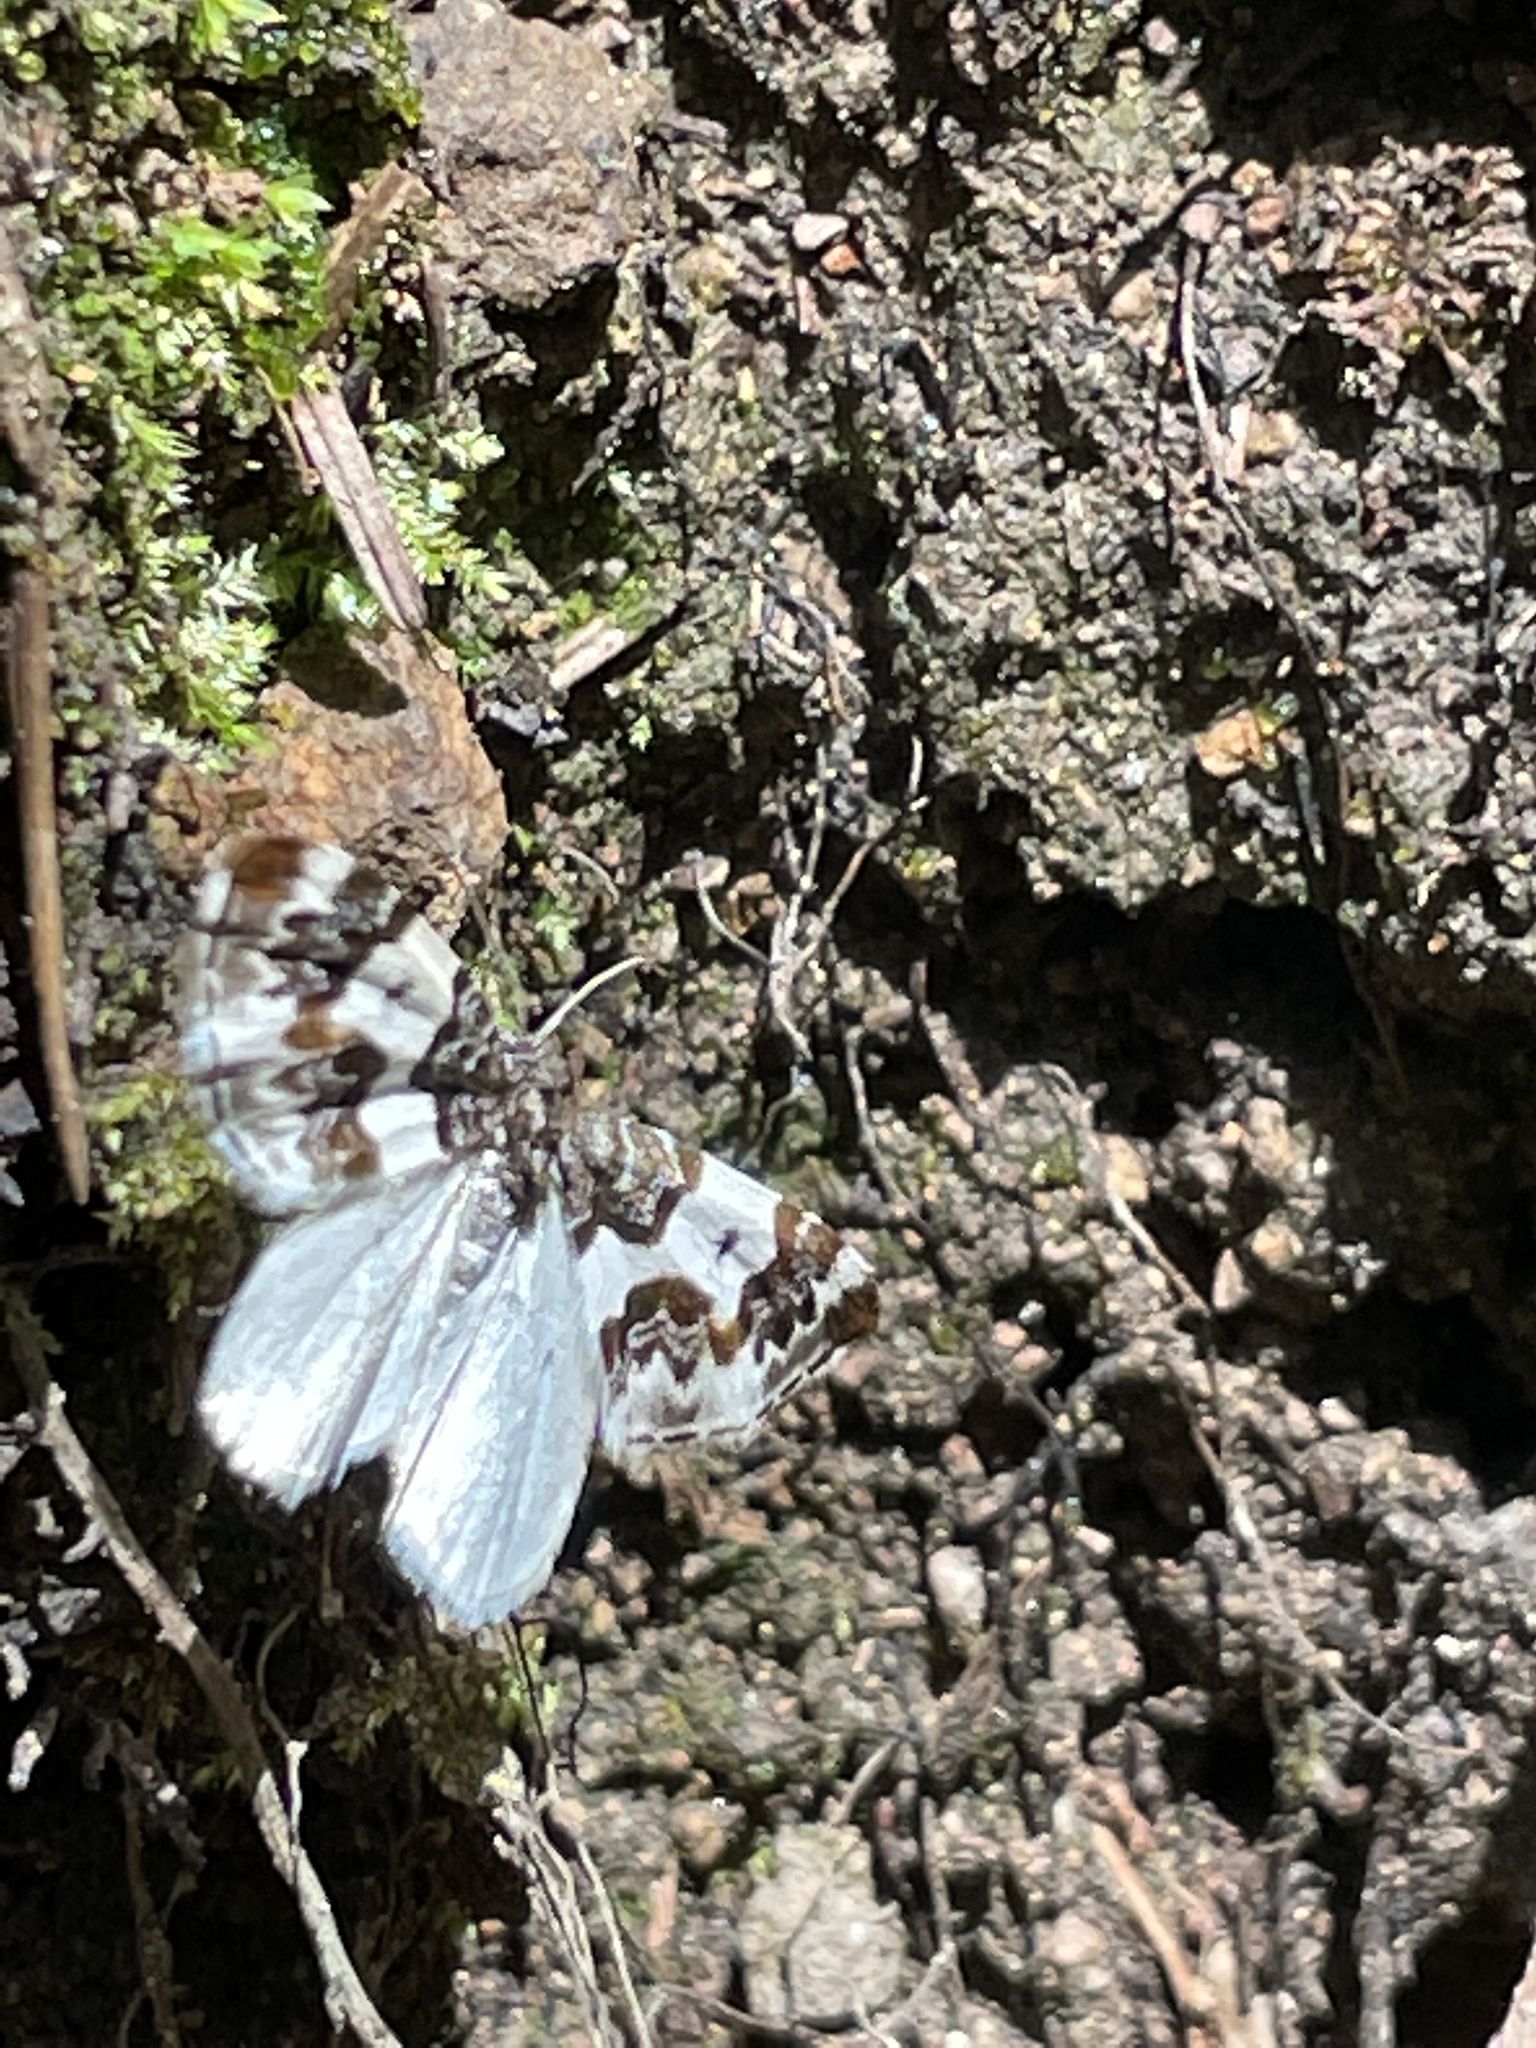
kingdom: Animalia
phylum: Arthropoda
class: Insecta
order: Lepidoptera
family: Geometridae
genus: Mesoleuca
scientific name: Mesoleuca gratulata
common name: Half-white carpet moth
